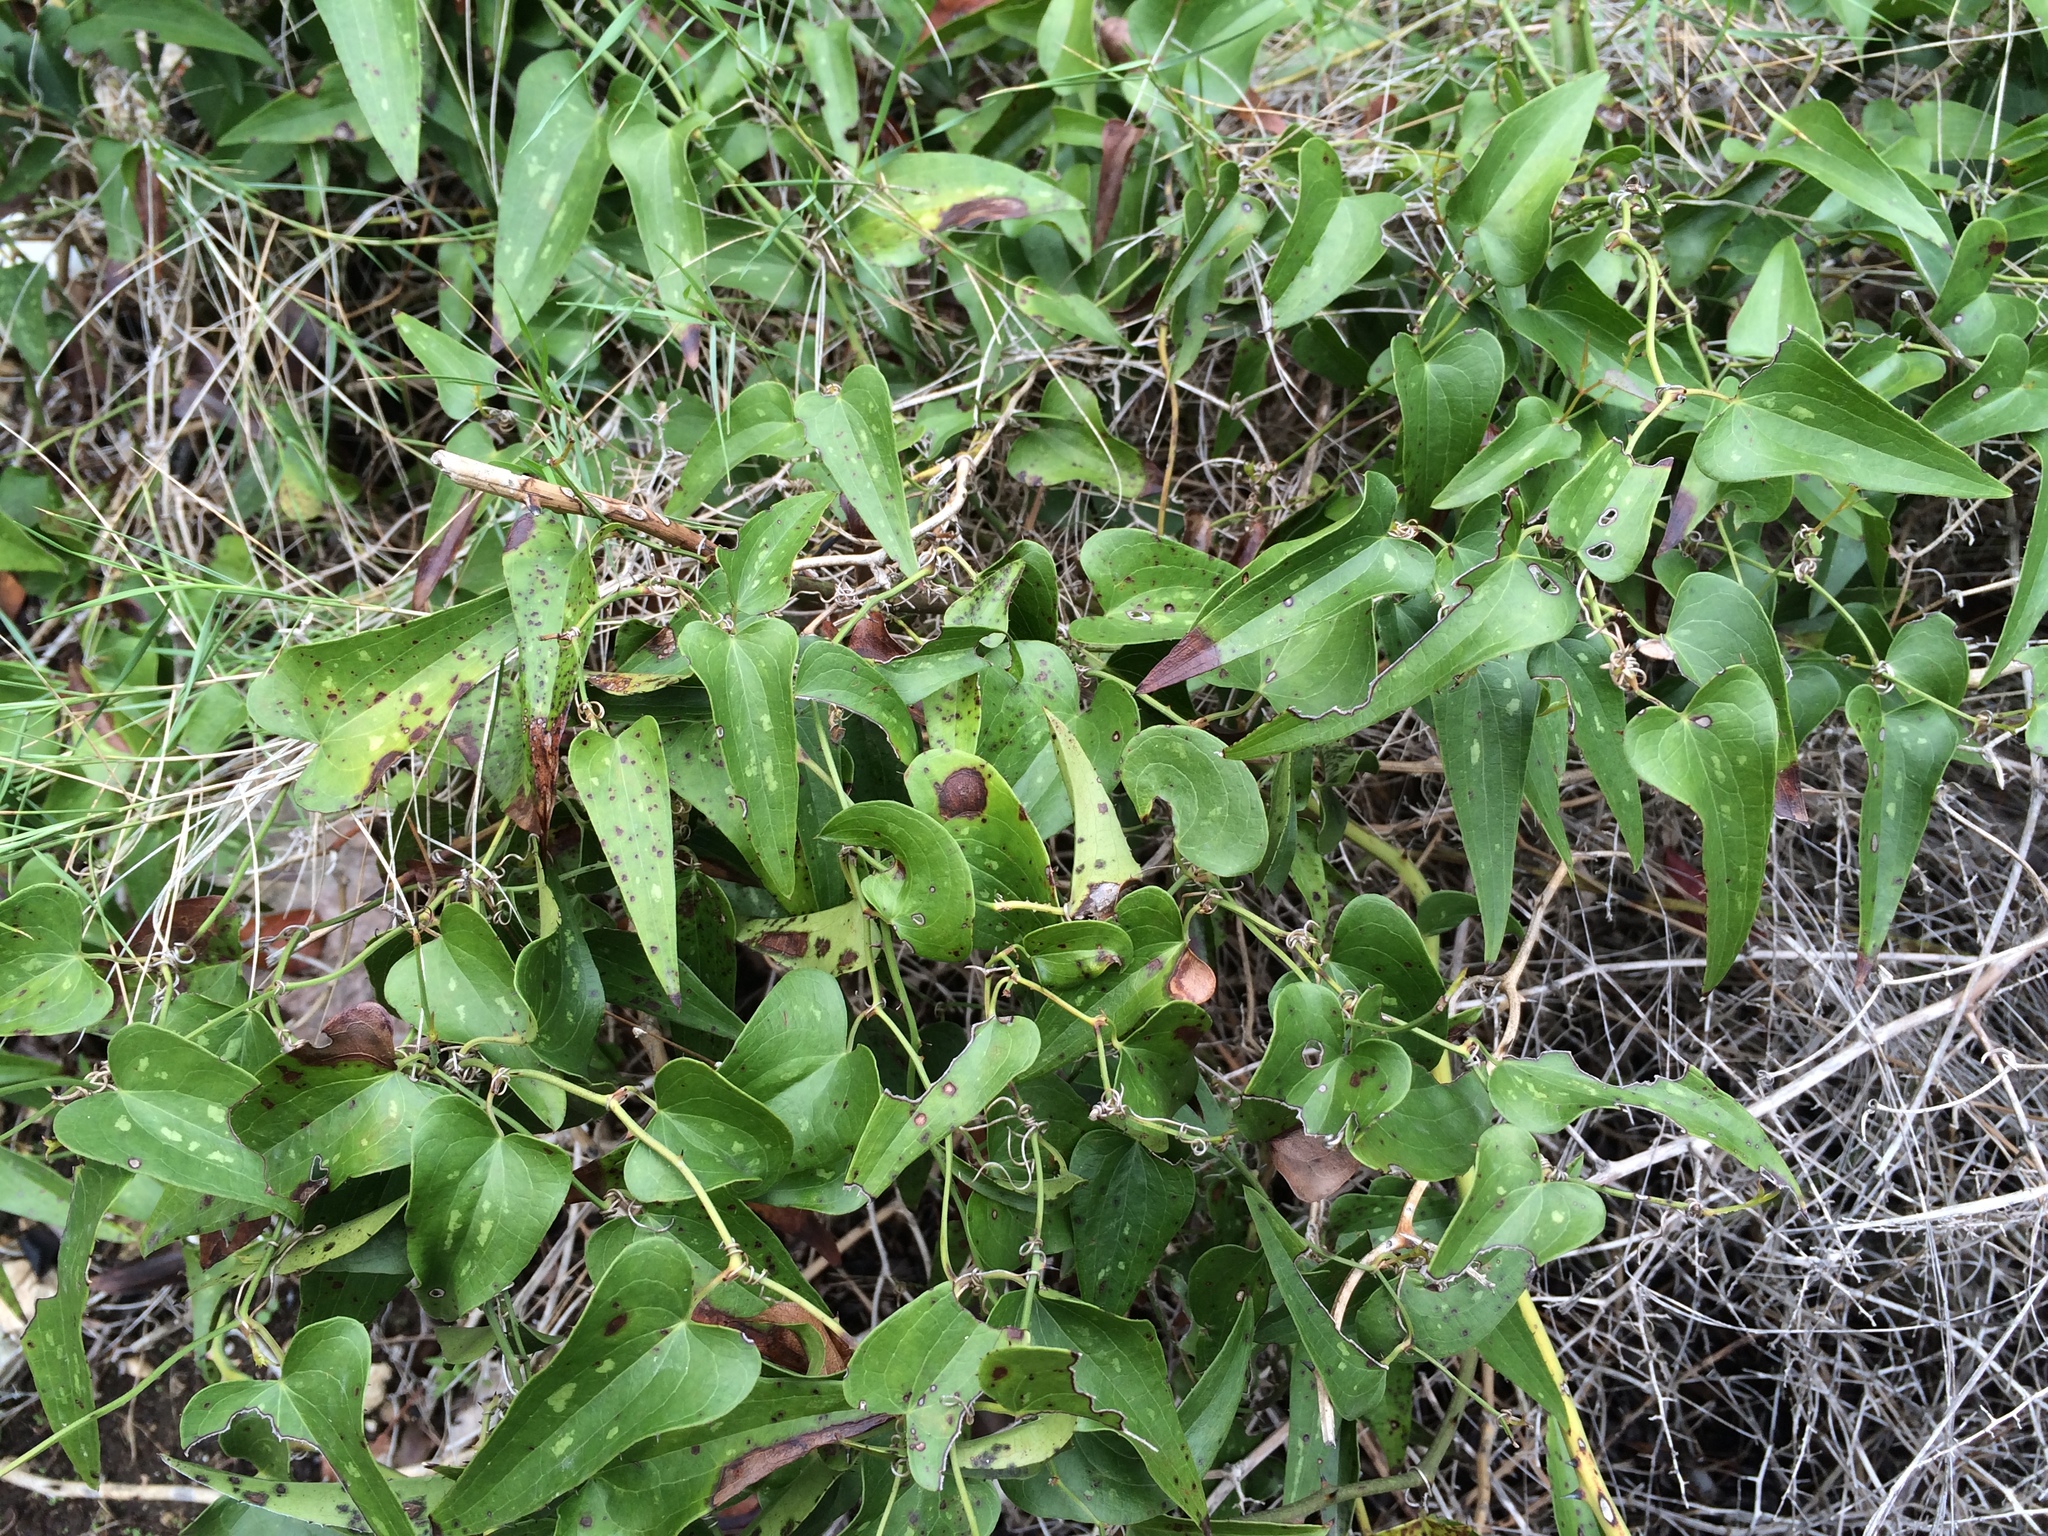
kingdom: Plantae
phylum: Tracheophyta
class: Liliopsida
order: Liliales
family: Smilacaceae
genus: Smilax
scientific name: Smilax aspera
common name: Common smilax
